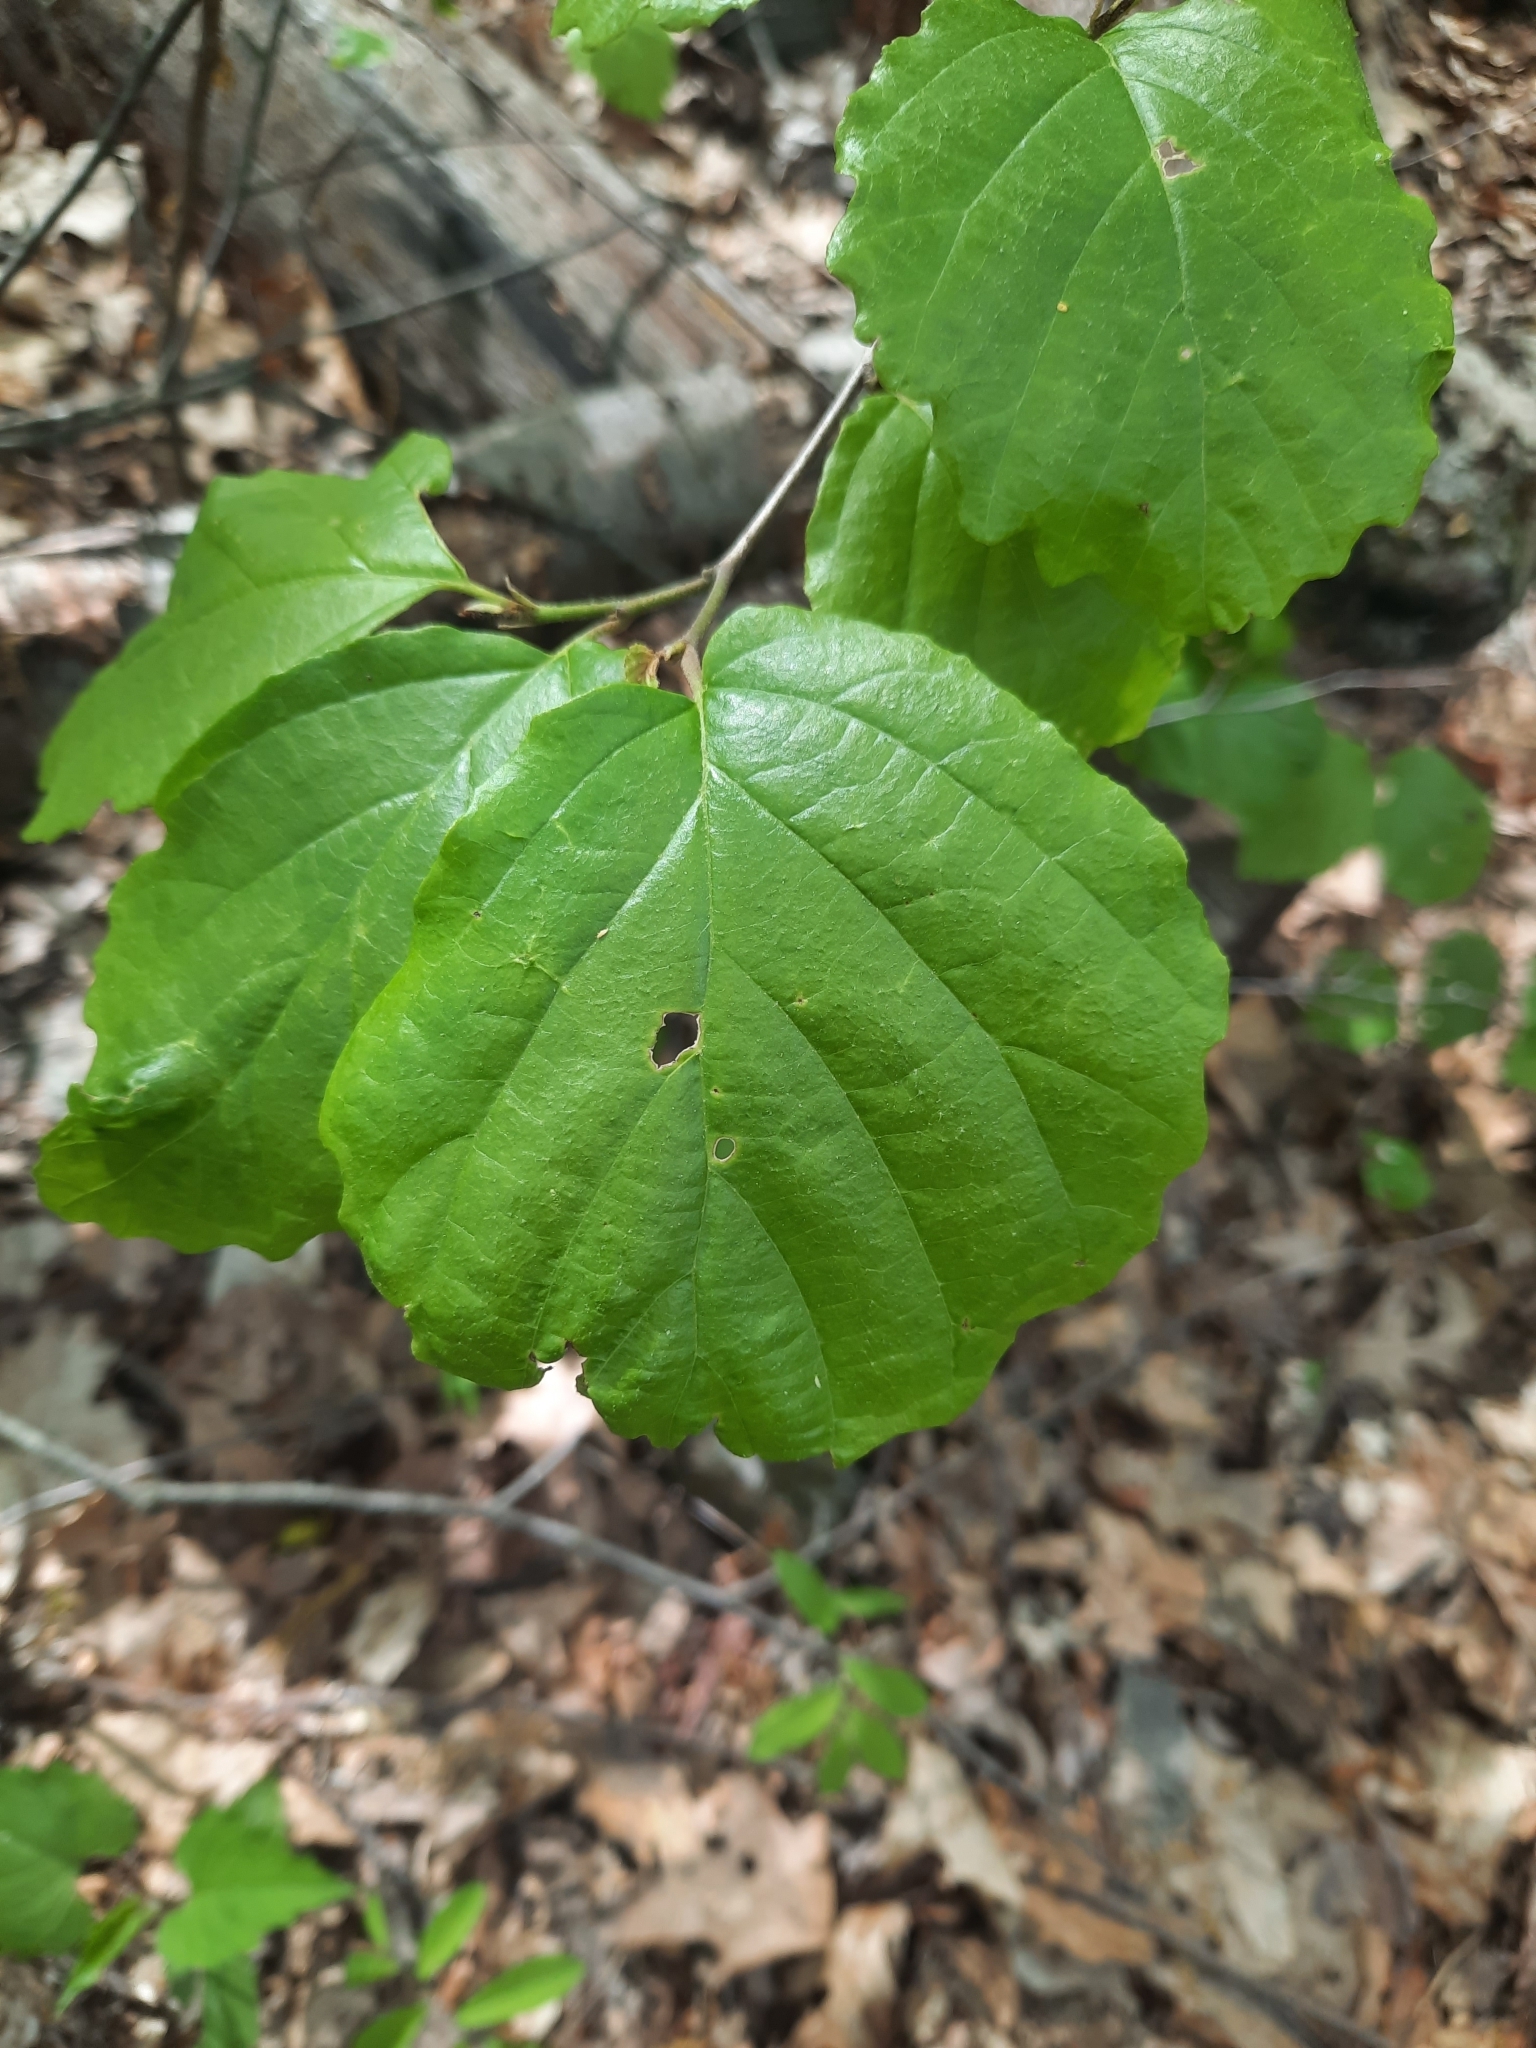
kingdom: Plantae
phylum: Tracheophyta
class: Magnoliopsida
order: Saxifragales
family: Hamamelidaceae
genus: Hamamelis
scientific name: Hamamelis virginiana
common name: Witch-hazel
